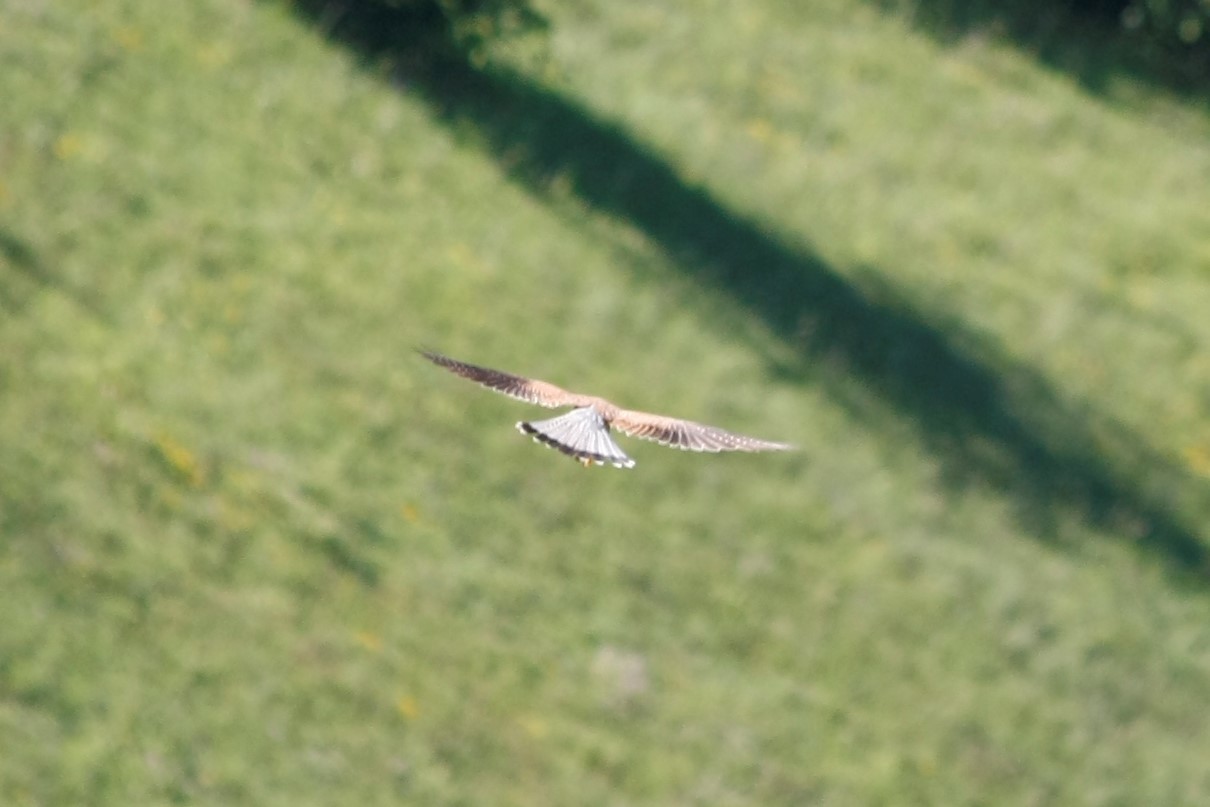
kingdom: Animalia
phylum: Chordata
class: Aves
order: Falconiformes
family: Falconidae
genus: Falco
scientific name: Falco tinnunculus
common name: Common kestrel
